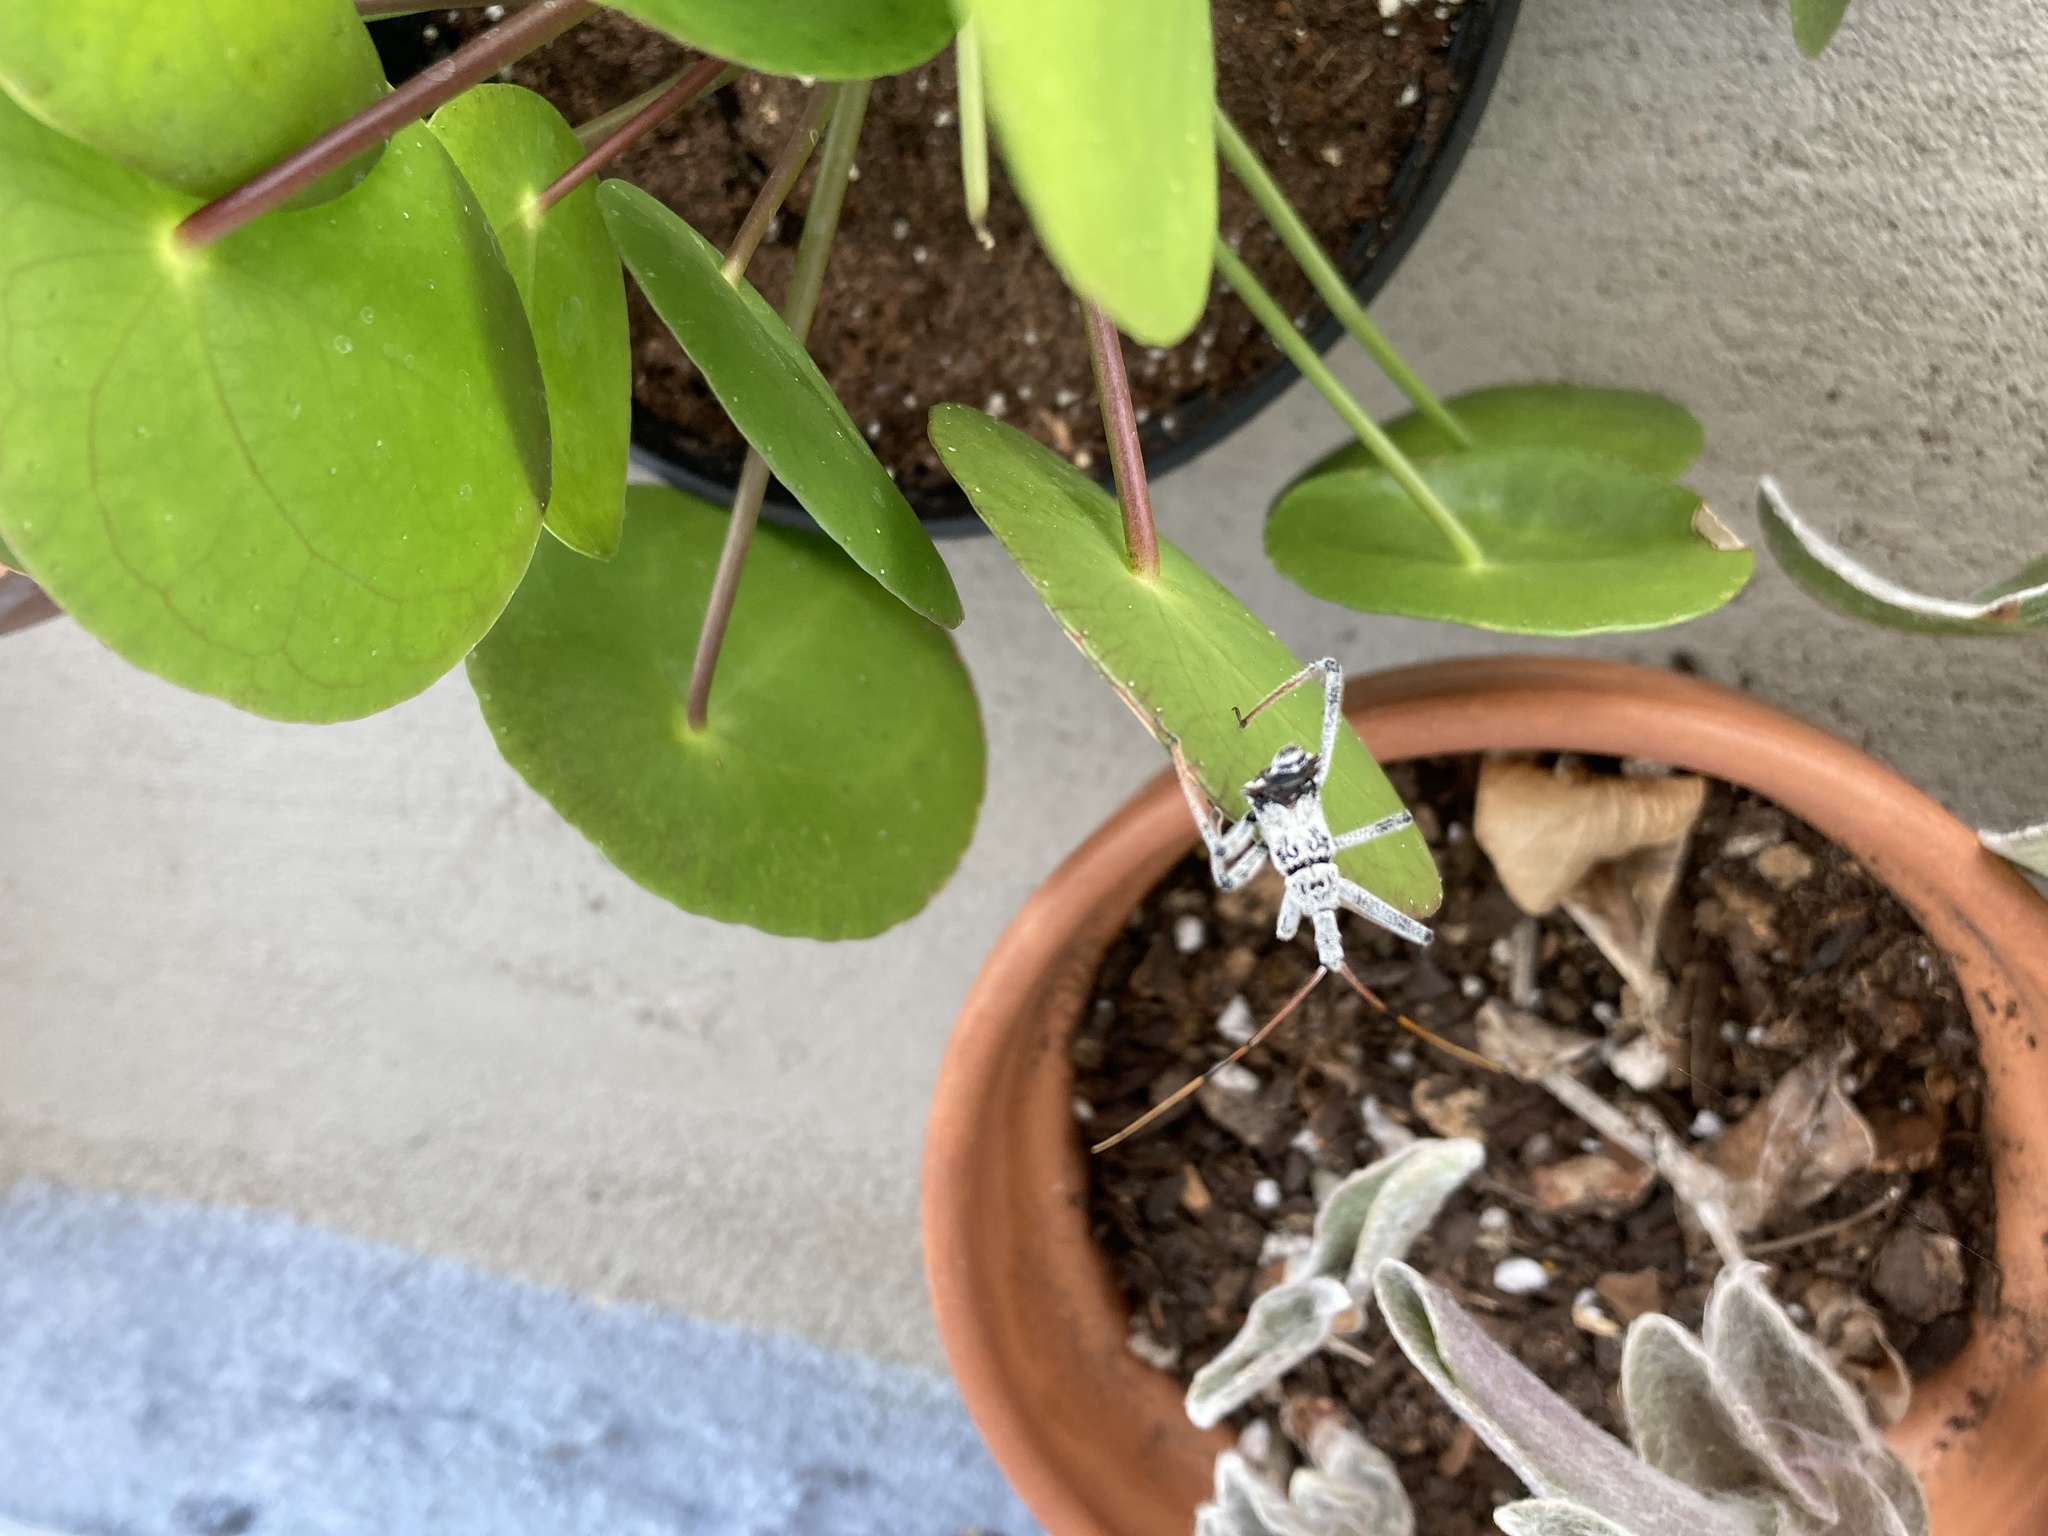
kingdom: Animalia
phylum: Arthropoda
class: Insecta
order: Hemiptera
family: Reduviidae
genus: Arilus
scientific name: Arilus cristatus
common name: North american wheel bug
